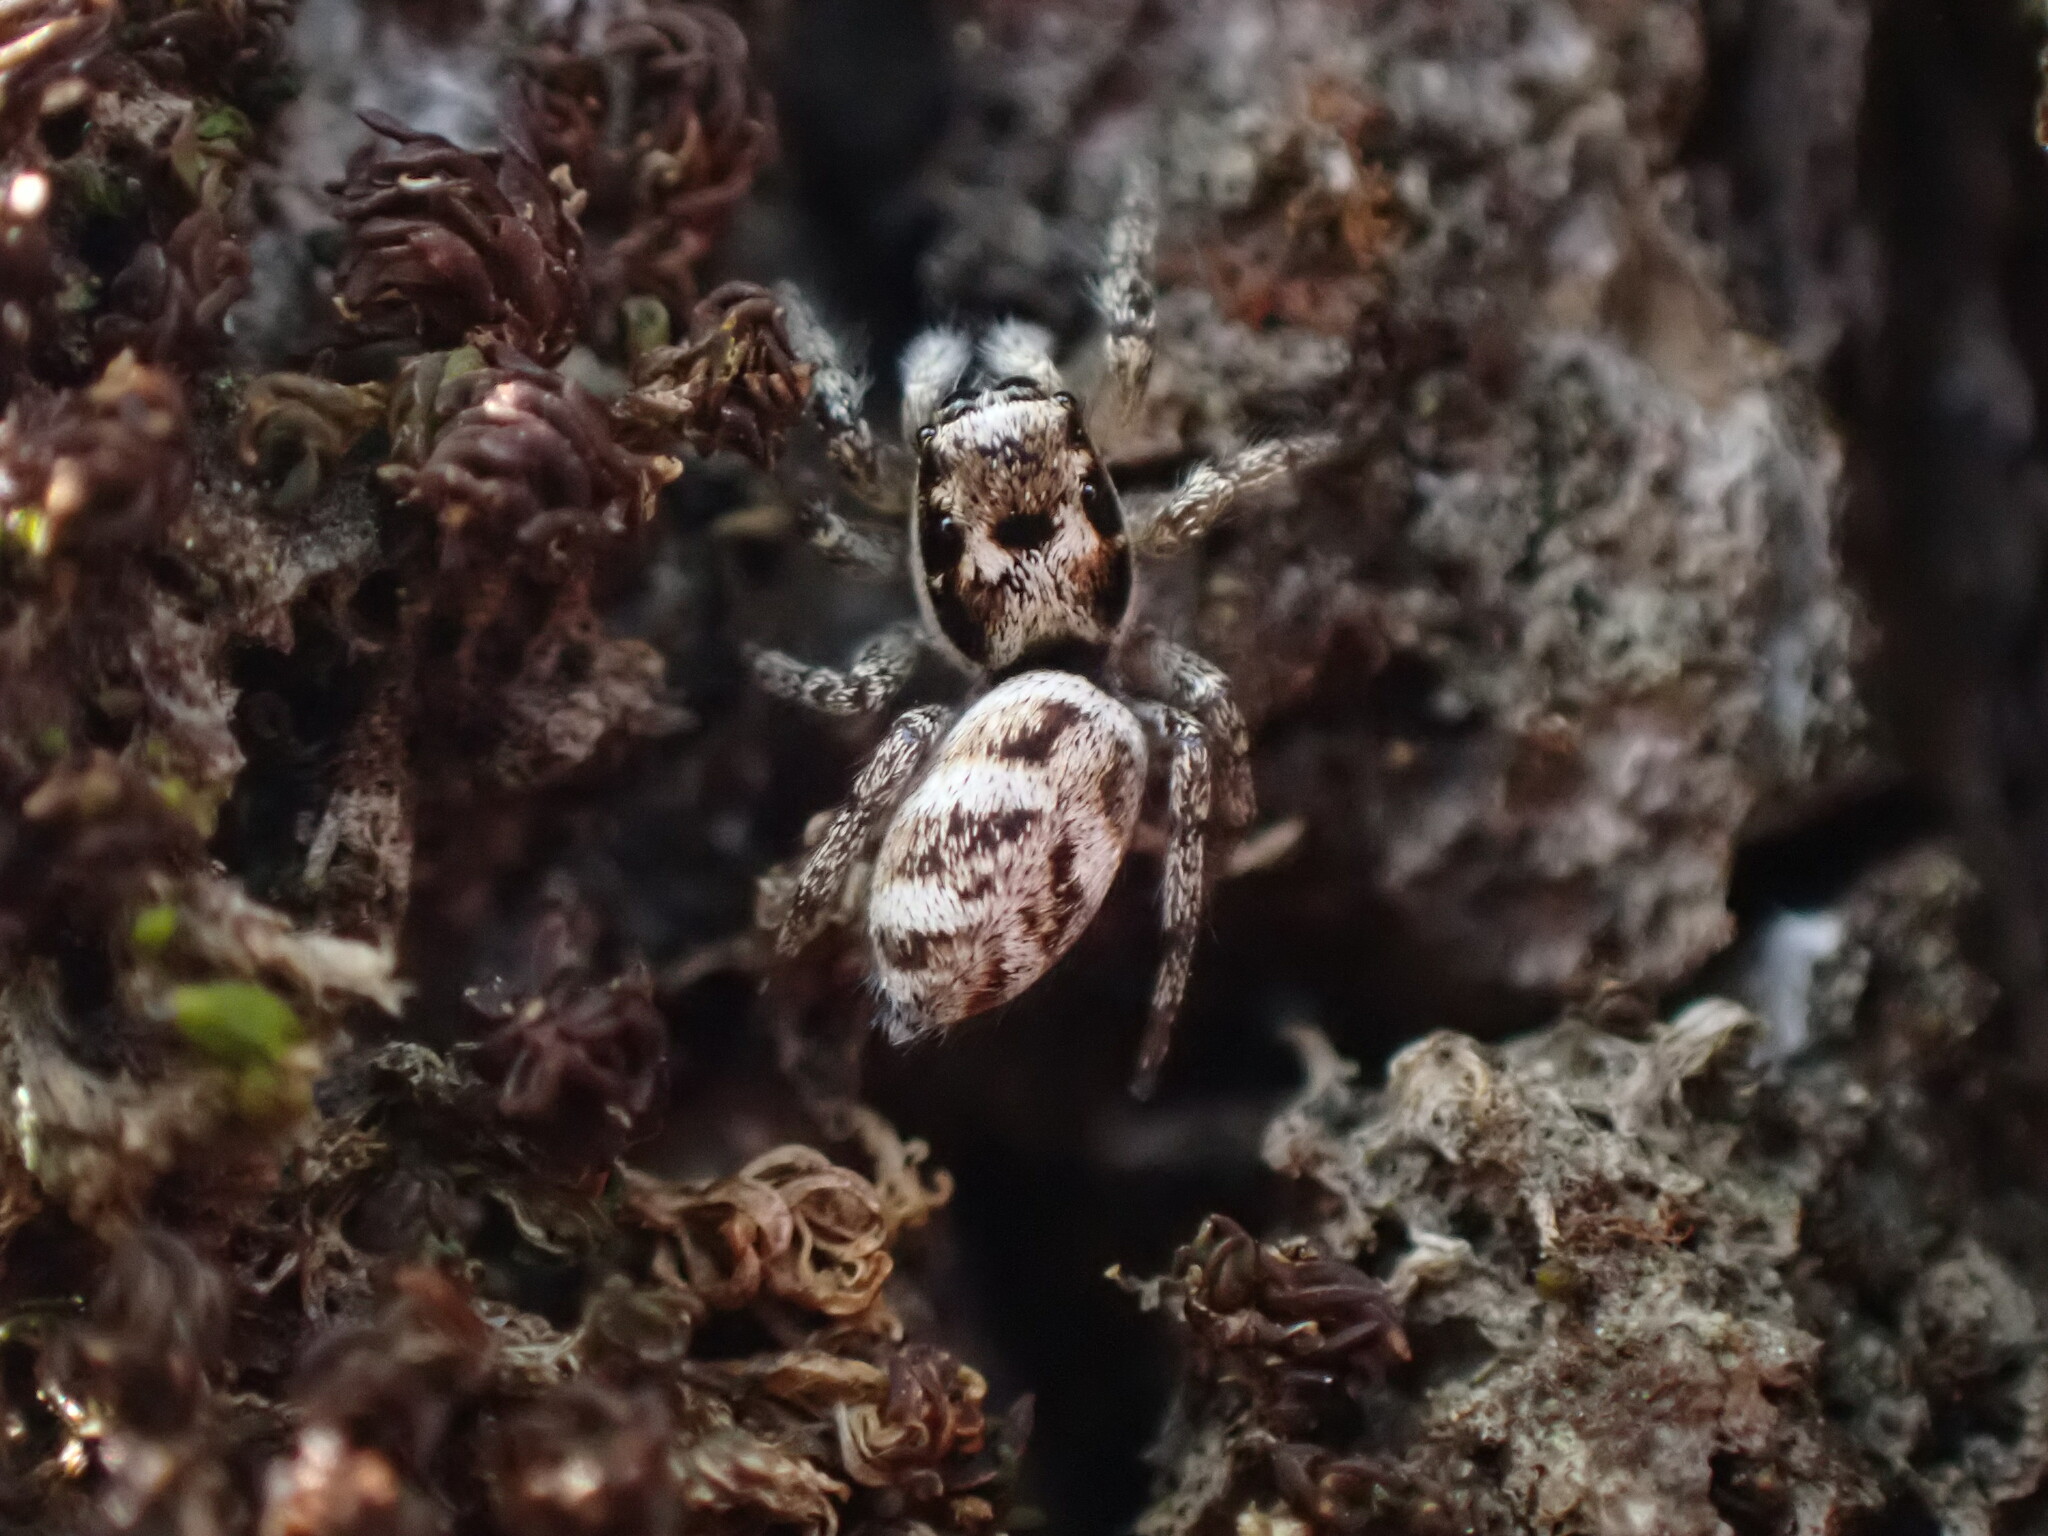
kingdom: Animalia
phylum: Arthropoda
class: Arachnida
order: Araneae
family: Salticidae
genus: Salticus
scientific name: Salticus scenicus
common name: Zebra jumper
